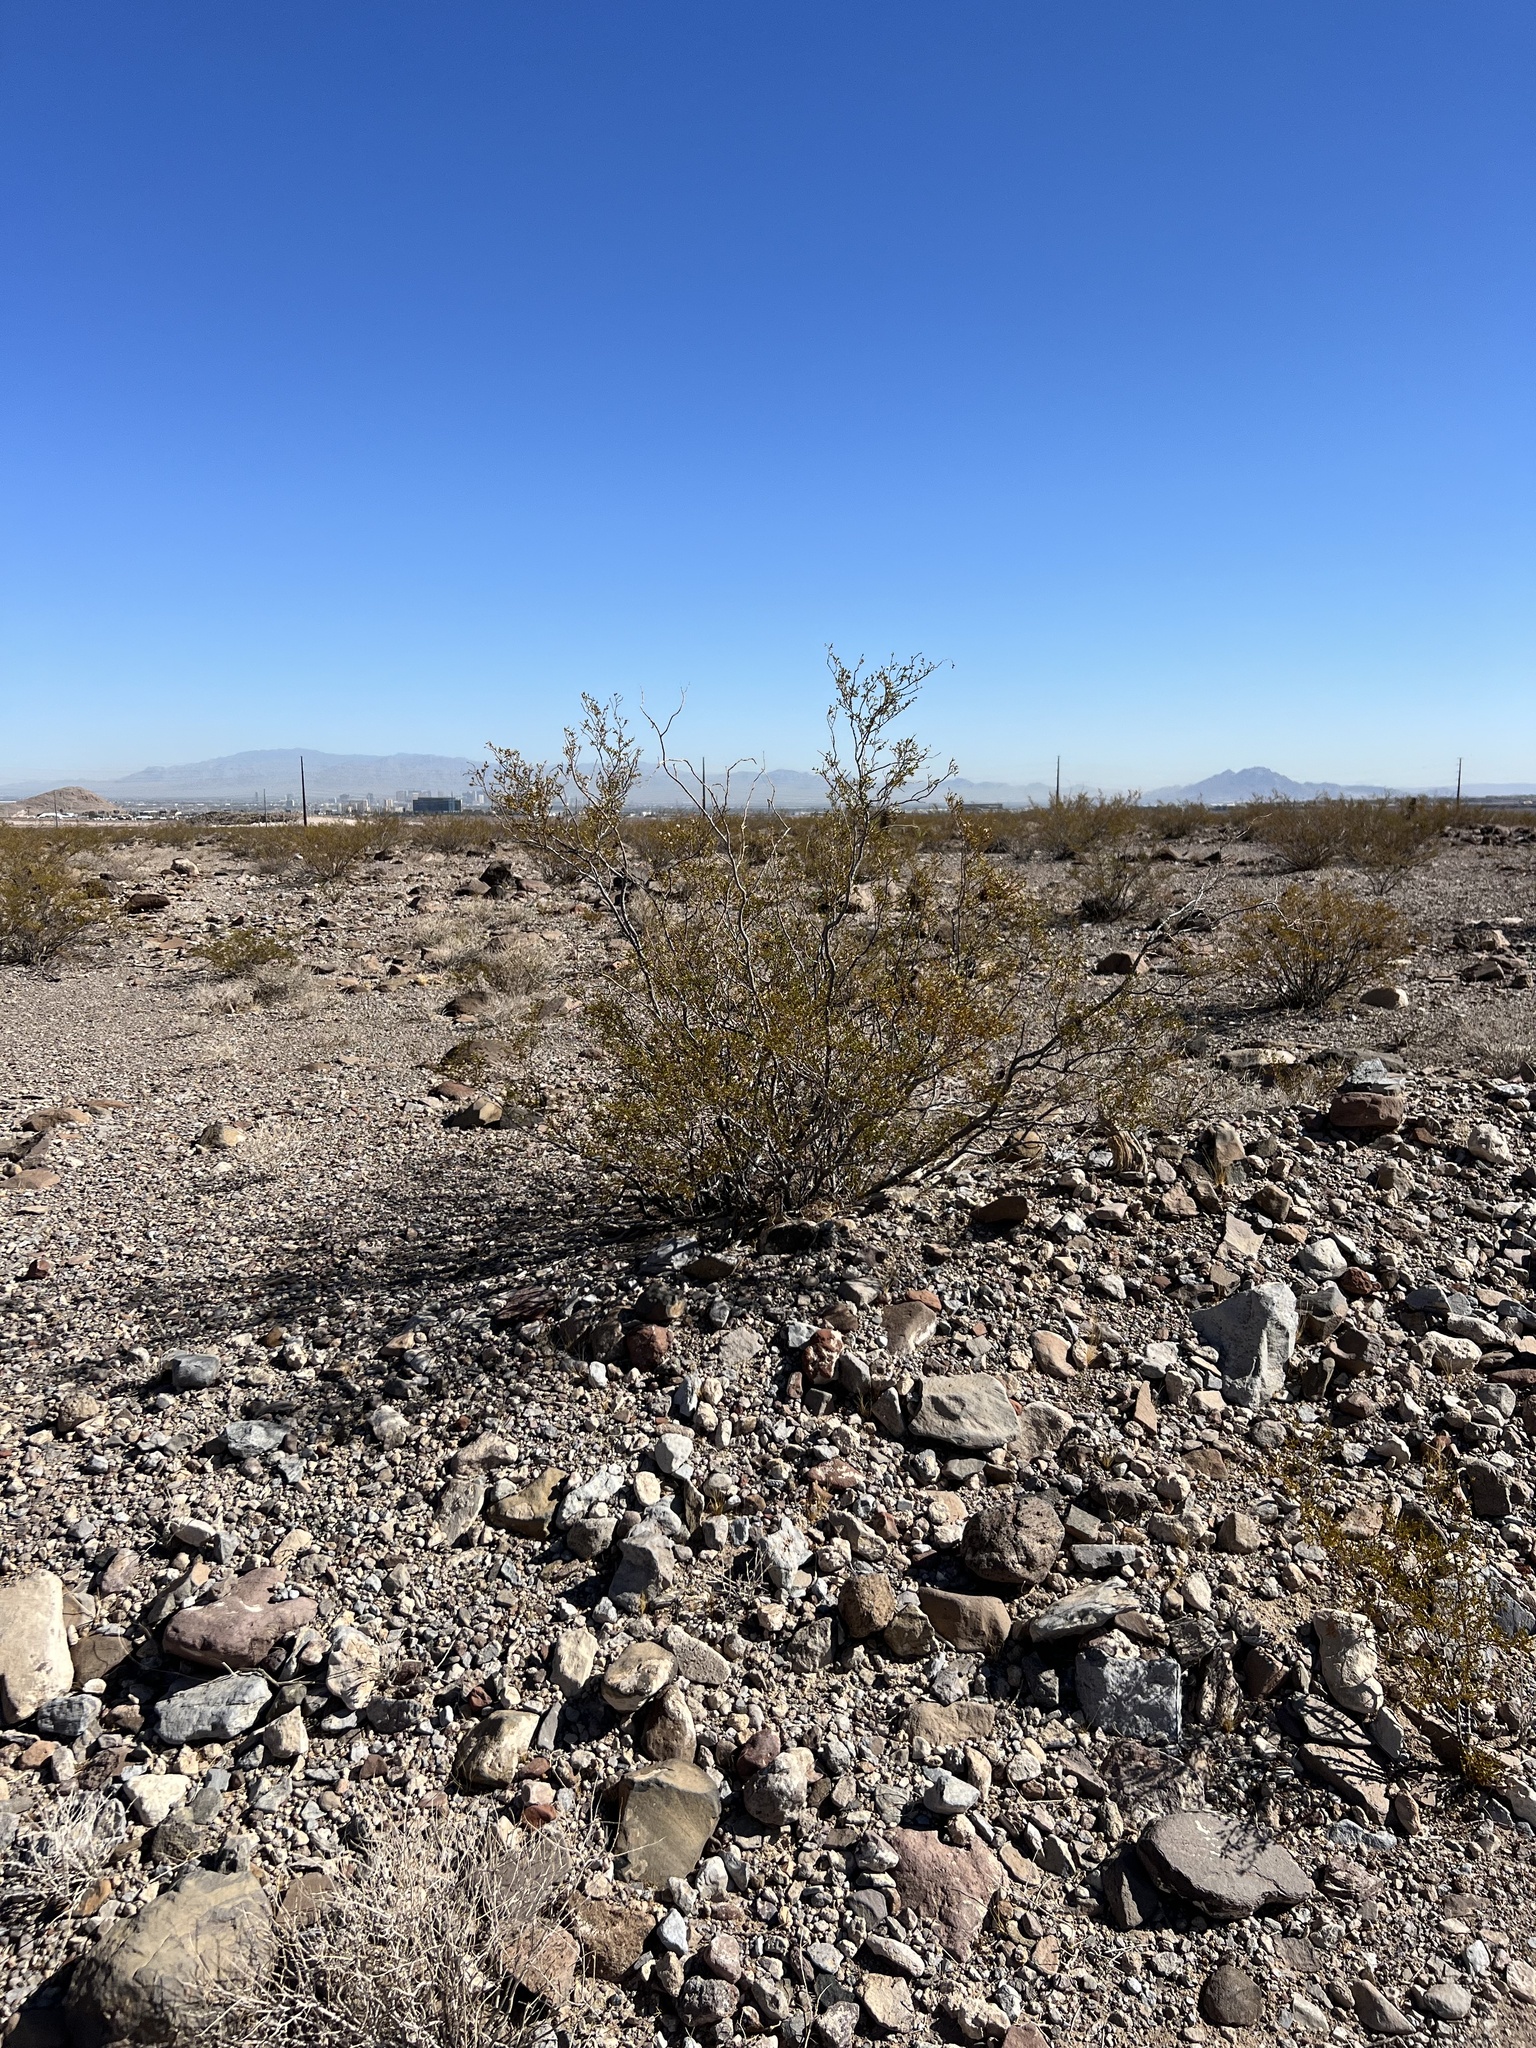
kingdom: Plantae
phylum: Tracheophyta
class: Magnoliopsida
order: Zygophyllales
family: Zygophyllaceae
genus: Larrea
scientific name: Larrea tridentata
